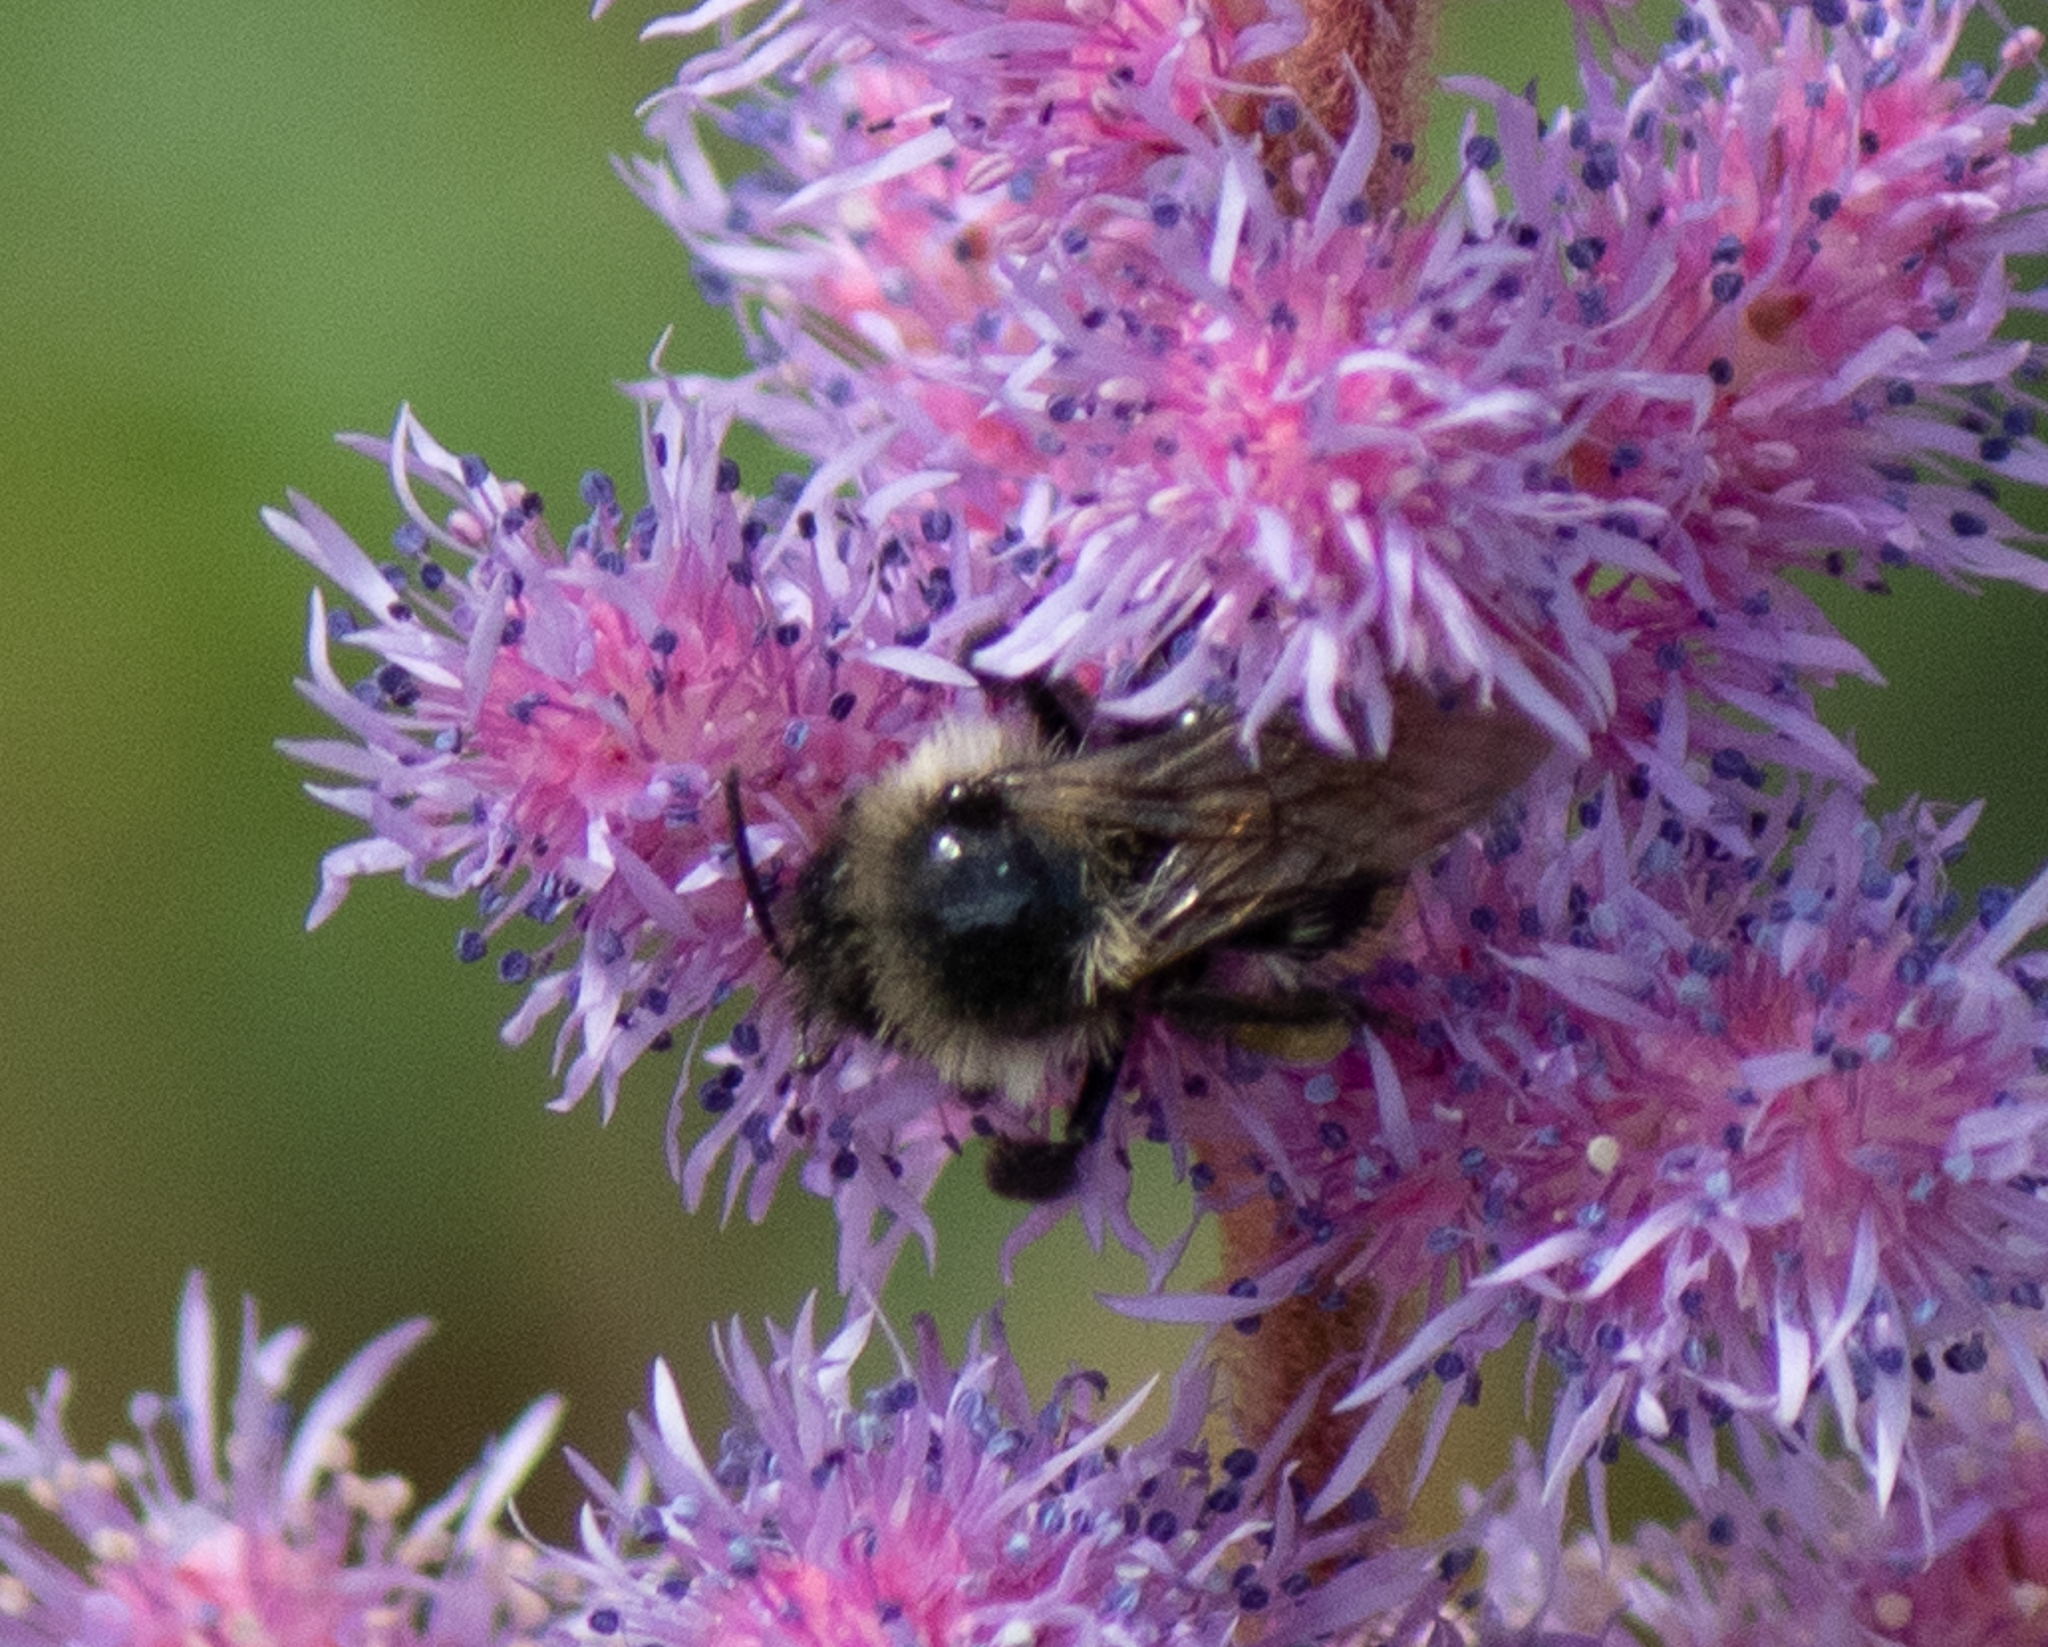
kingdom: Animalia
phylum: Arthropoda
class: Insecta
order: Hymenoptera
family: Apidae
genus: Bombus
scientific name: Bombus ternarius
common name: Tri-colored bumble bee
